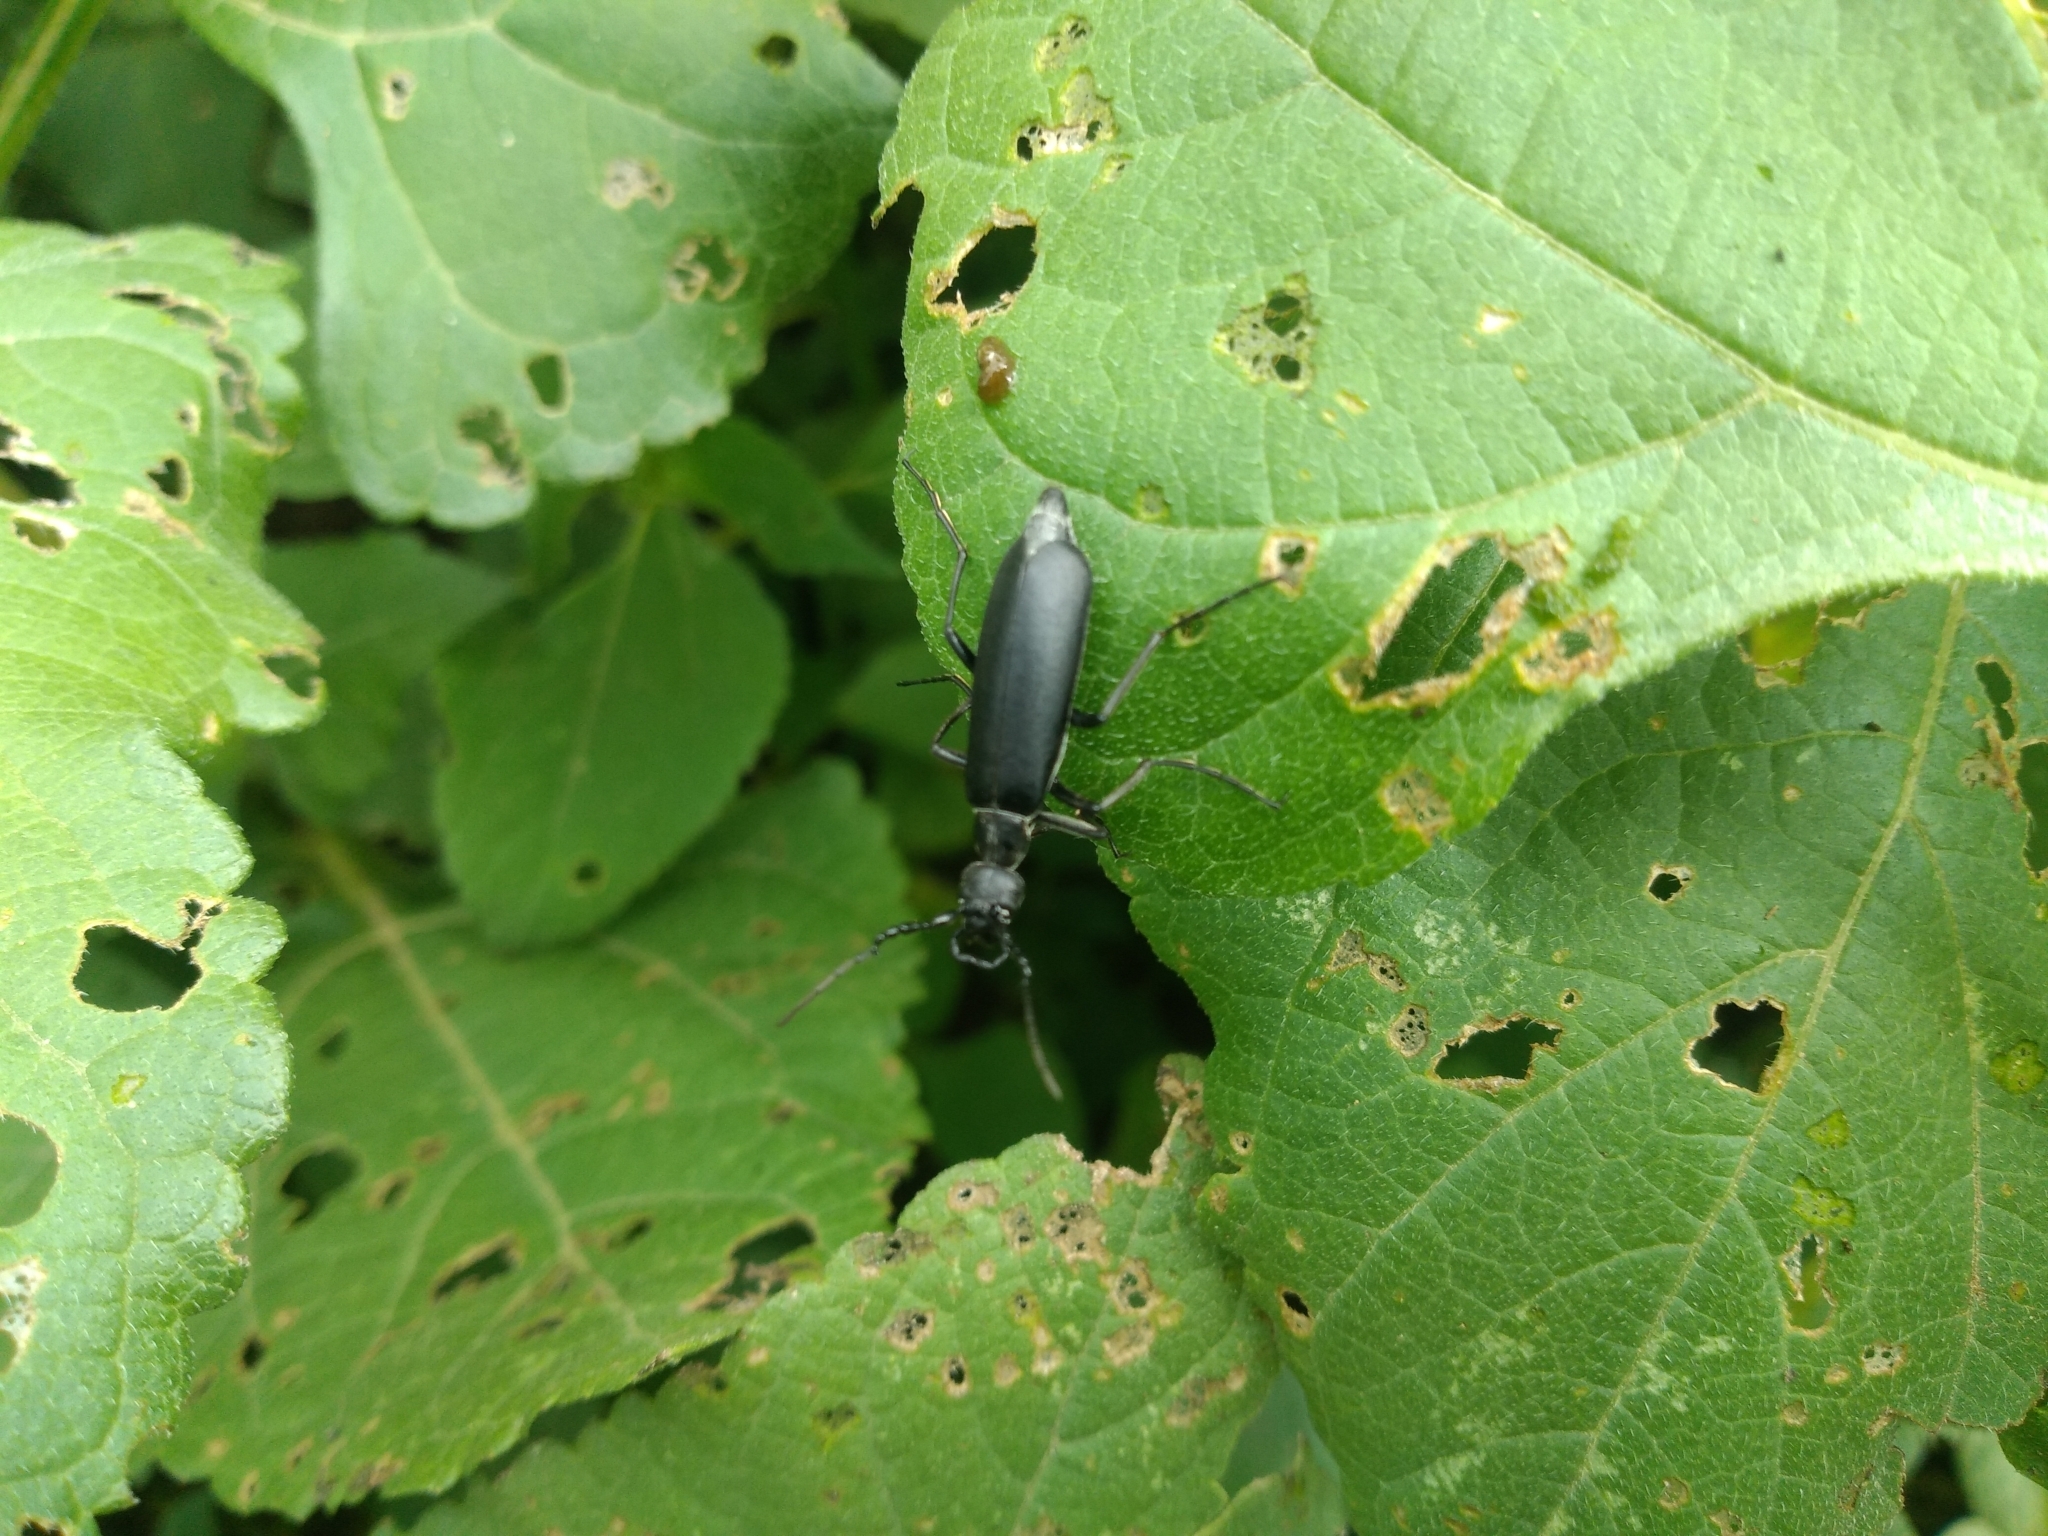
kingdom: Animalia
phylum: Arthropoda
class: Insecta
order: Coleoptera
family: Meloidae
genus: Epicauta
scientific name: Epicauta curvicornis
